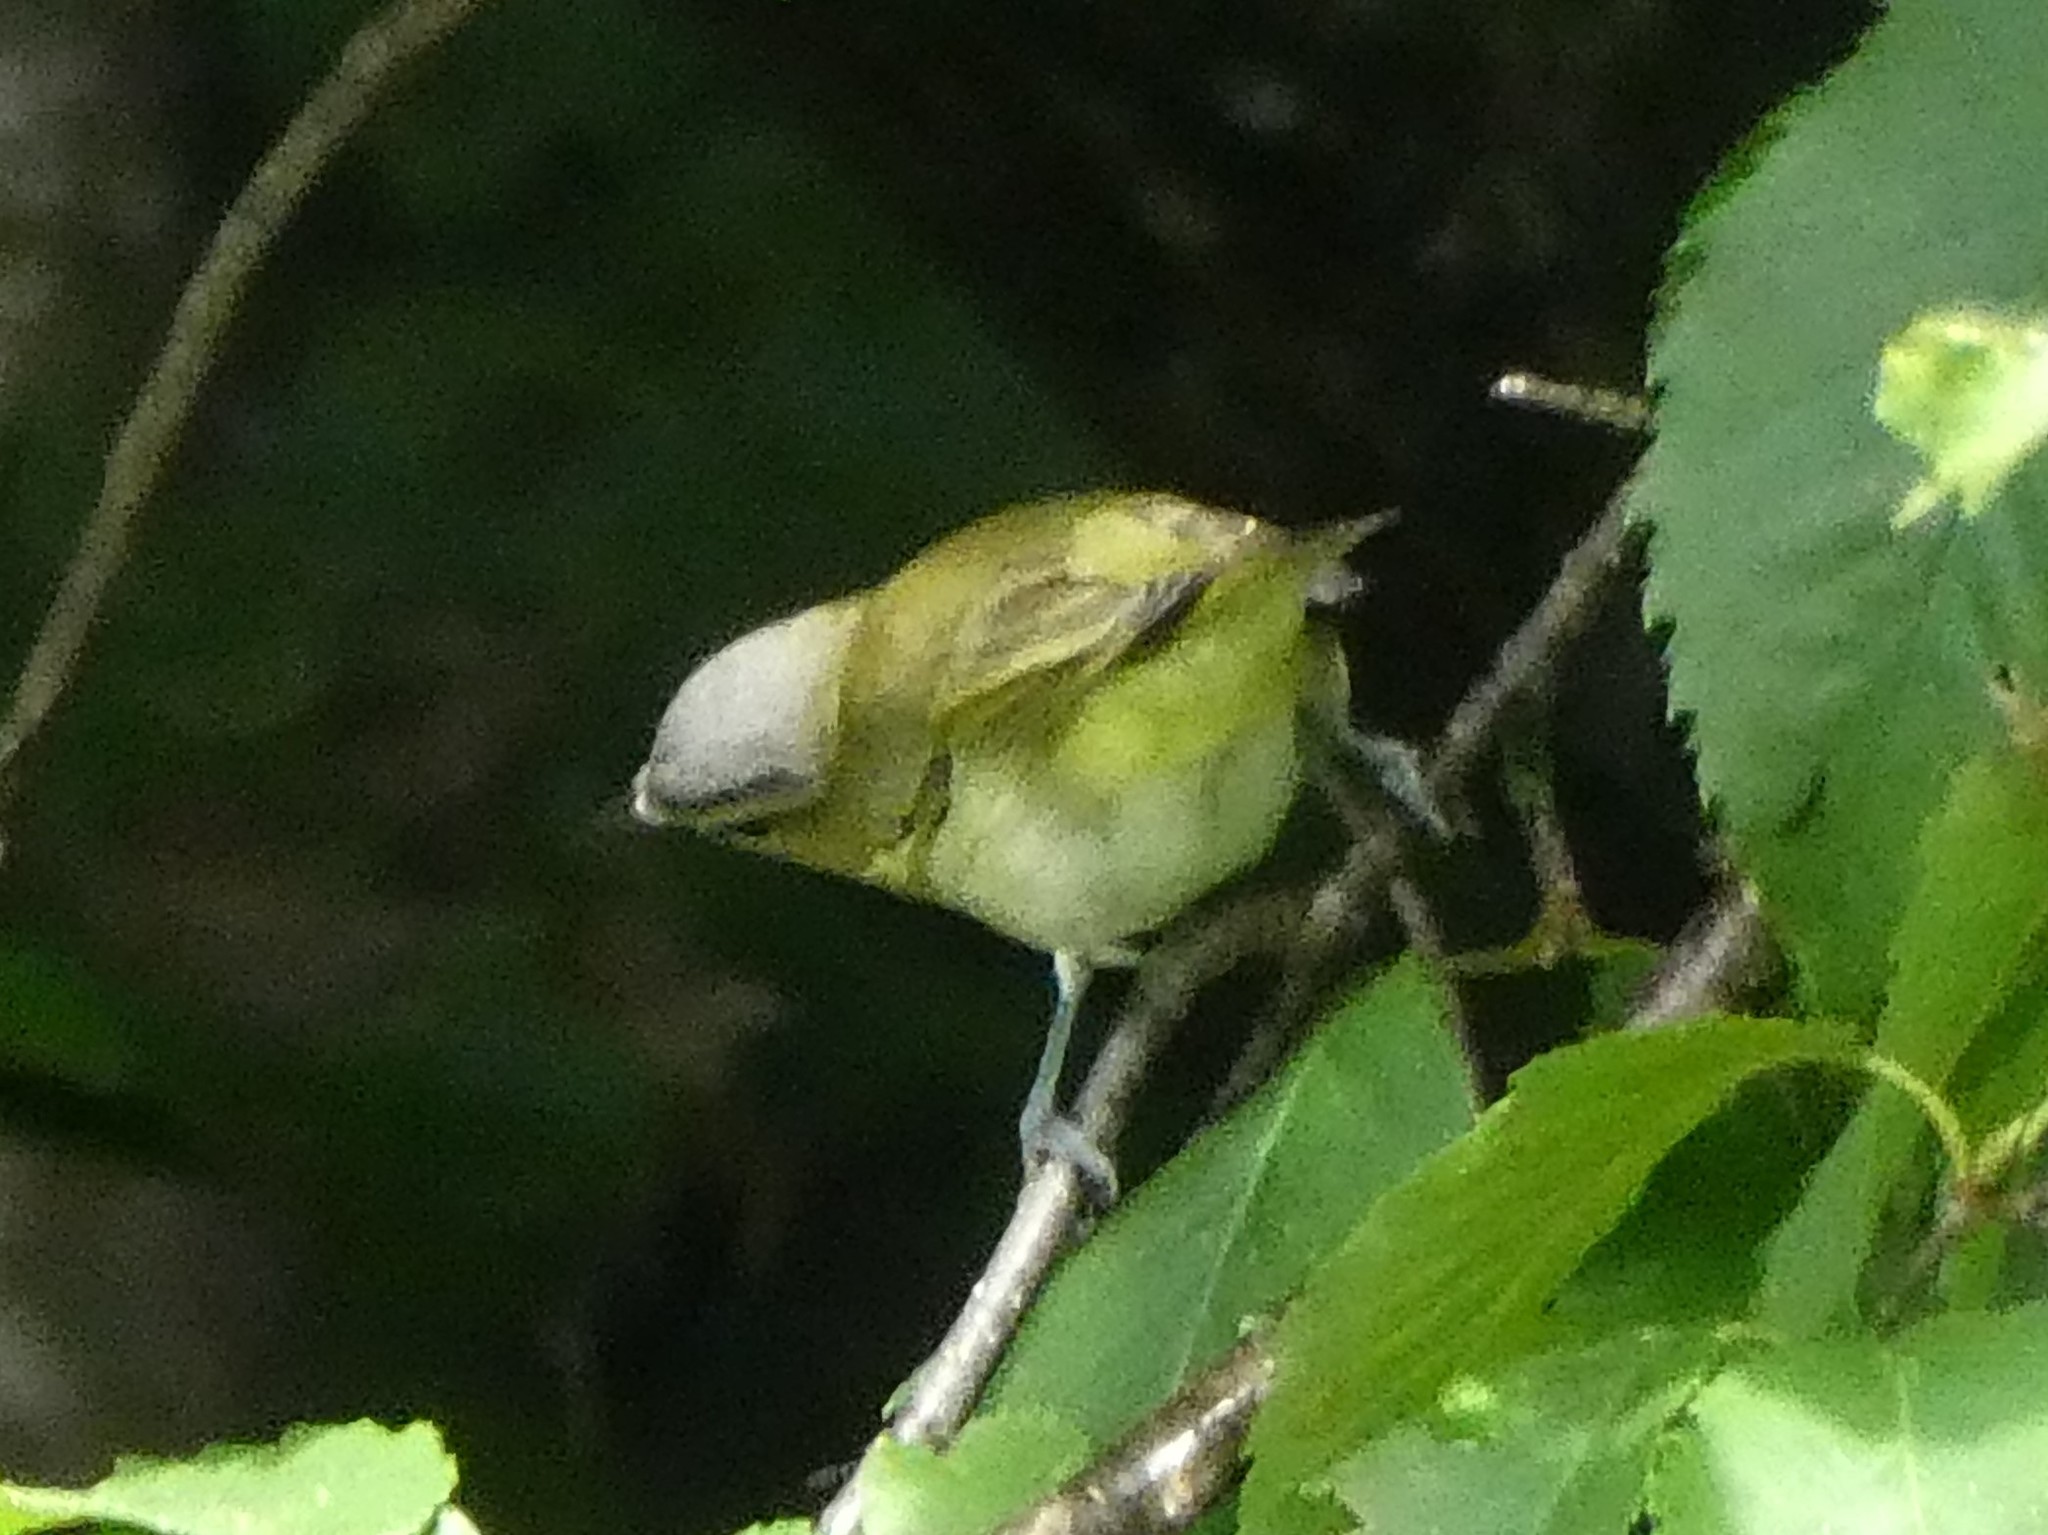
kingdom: Animalia
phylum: Chordata
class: Aves
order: Passeriformes
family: Vireonidae
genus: Vireo
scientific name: Vireo olivaceus
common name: Red-eyed vireo
